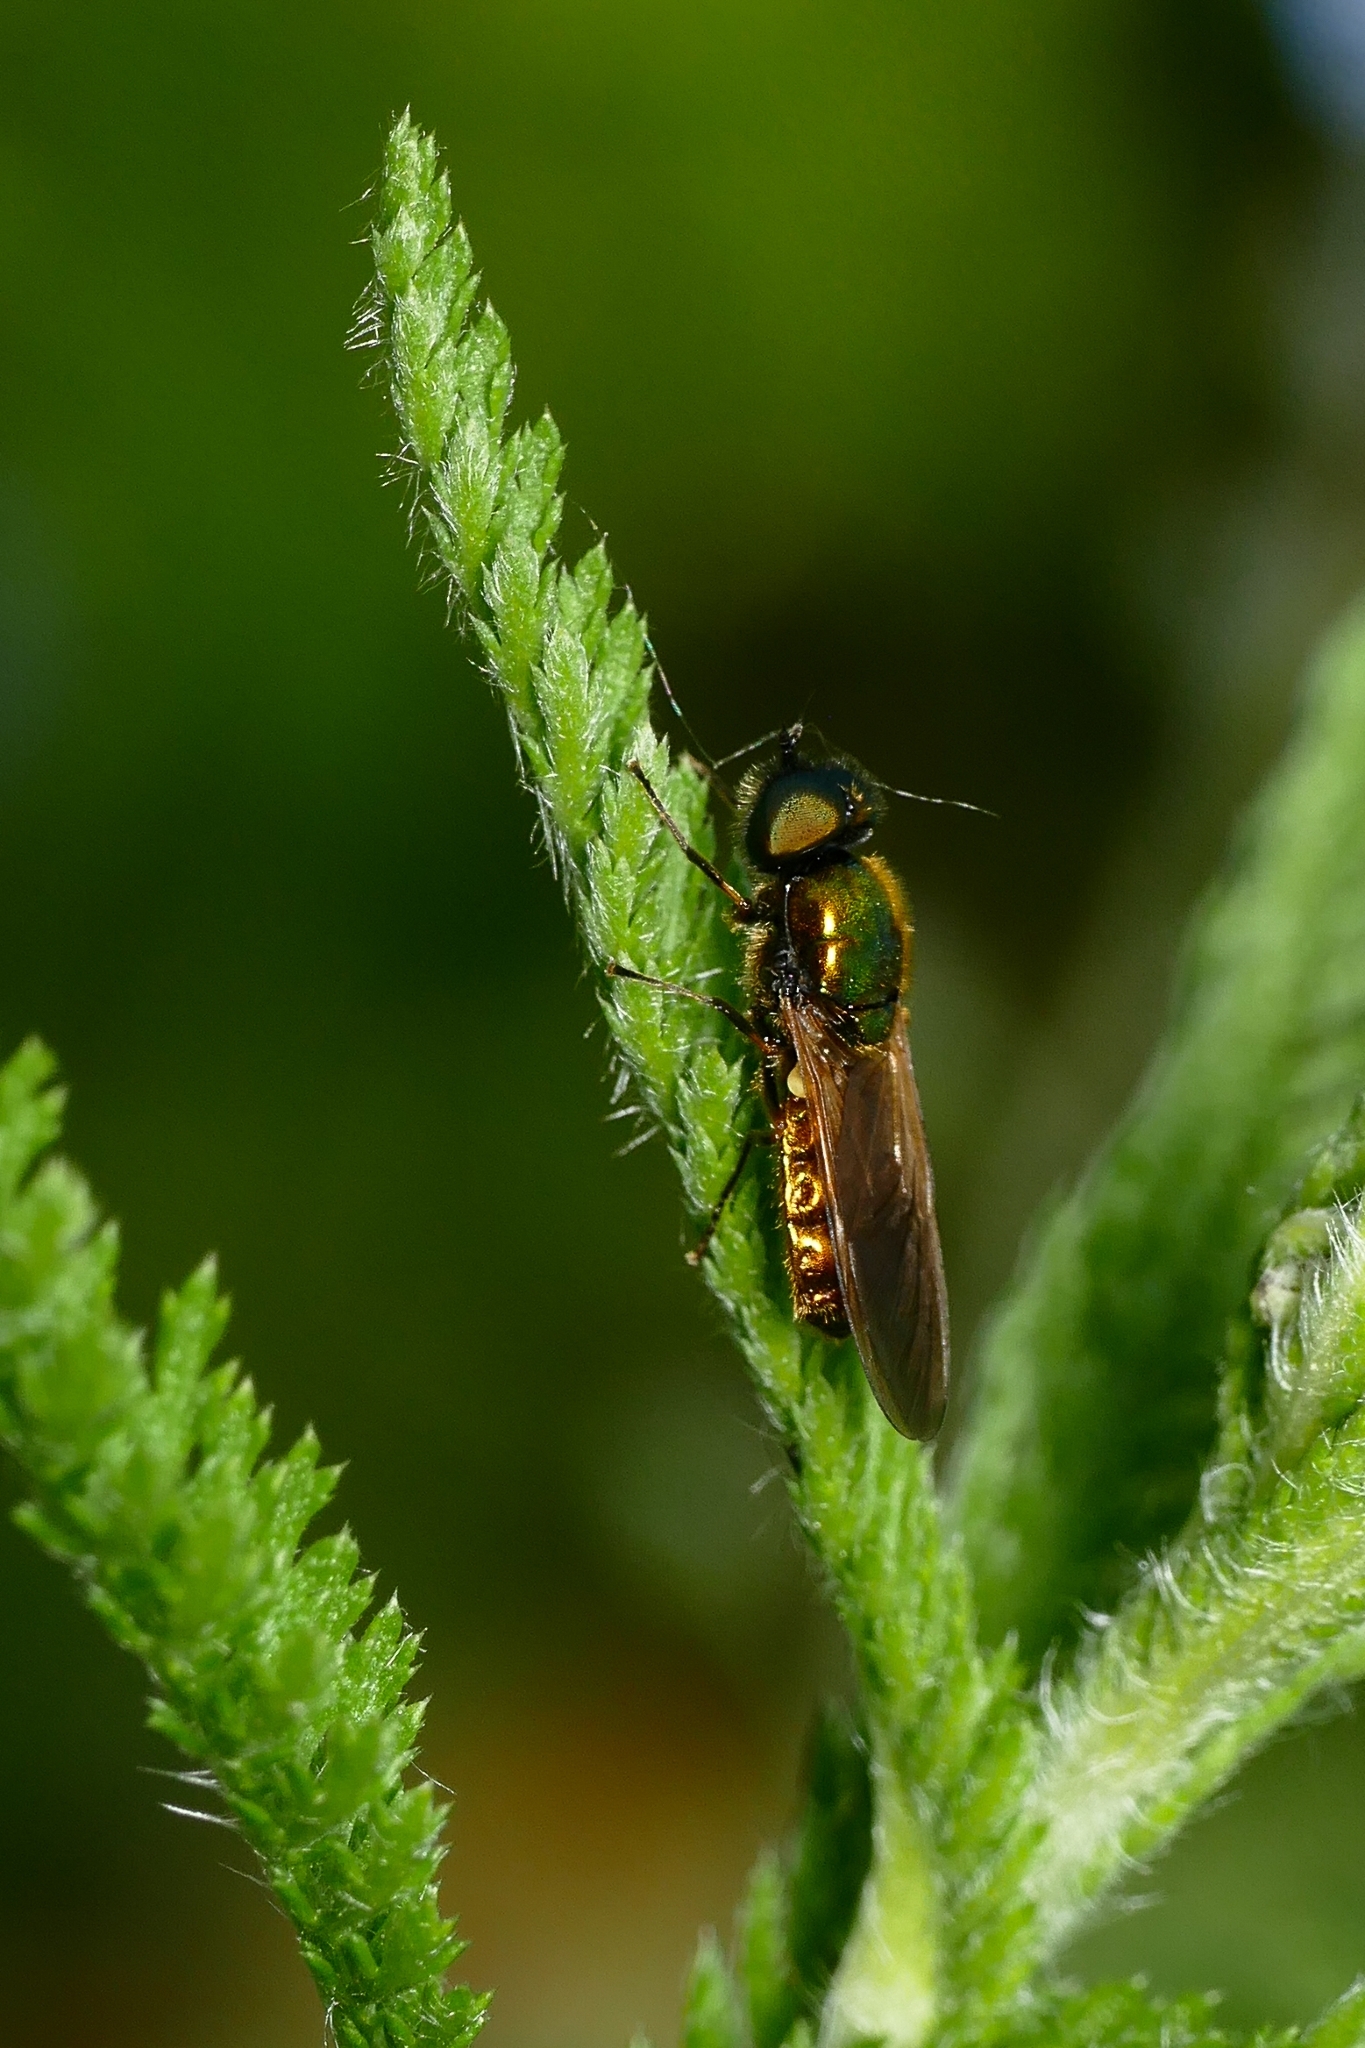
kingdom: Animalia
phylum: Arthropoda
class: Insecta
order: Diptera
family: Stratiomyidae
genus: Chloromyia
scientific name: Chloromyia formosa
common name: Soldier fly
